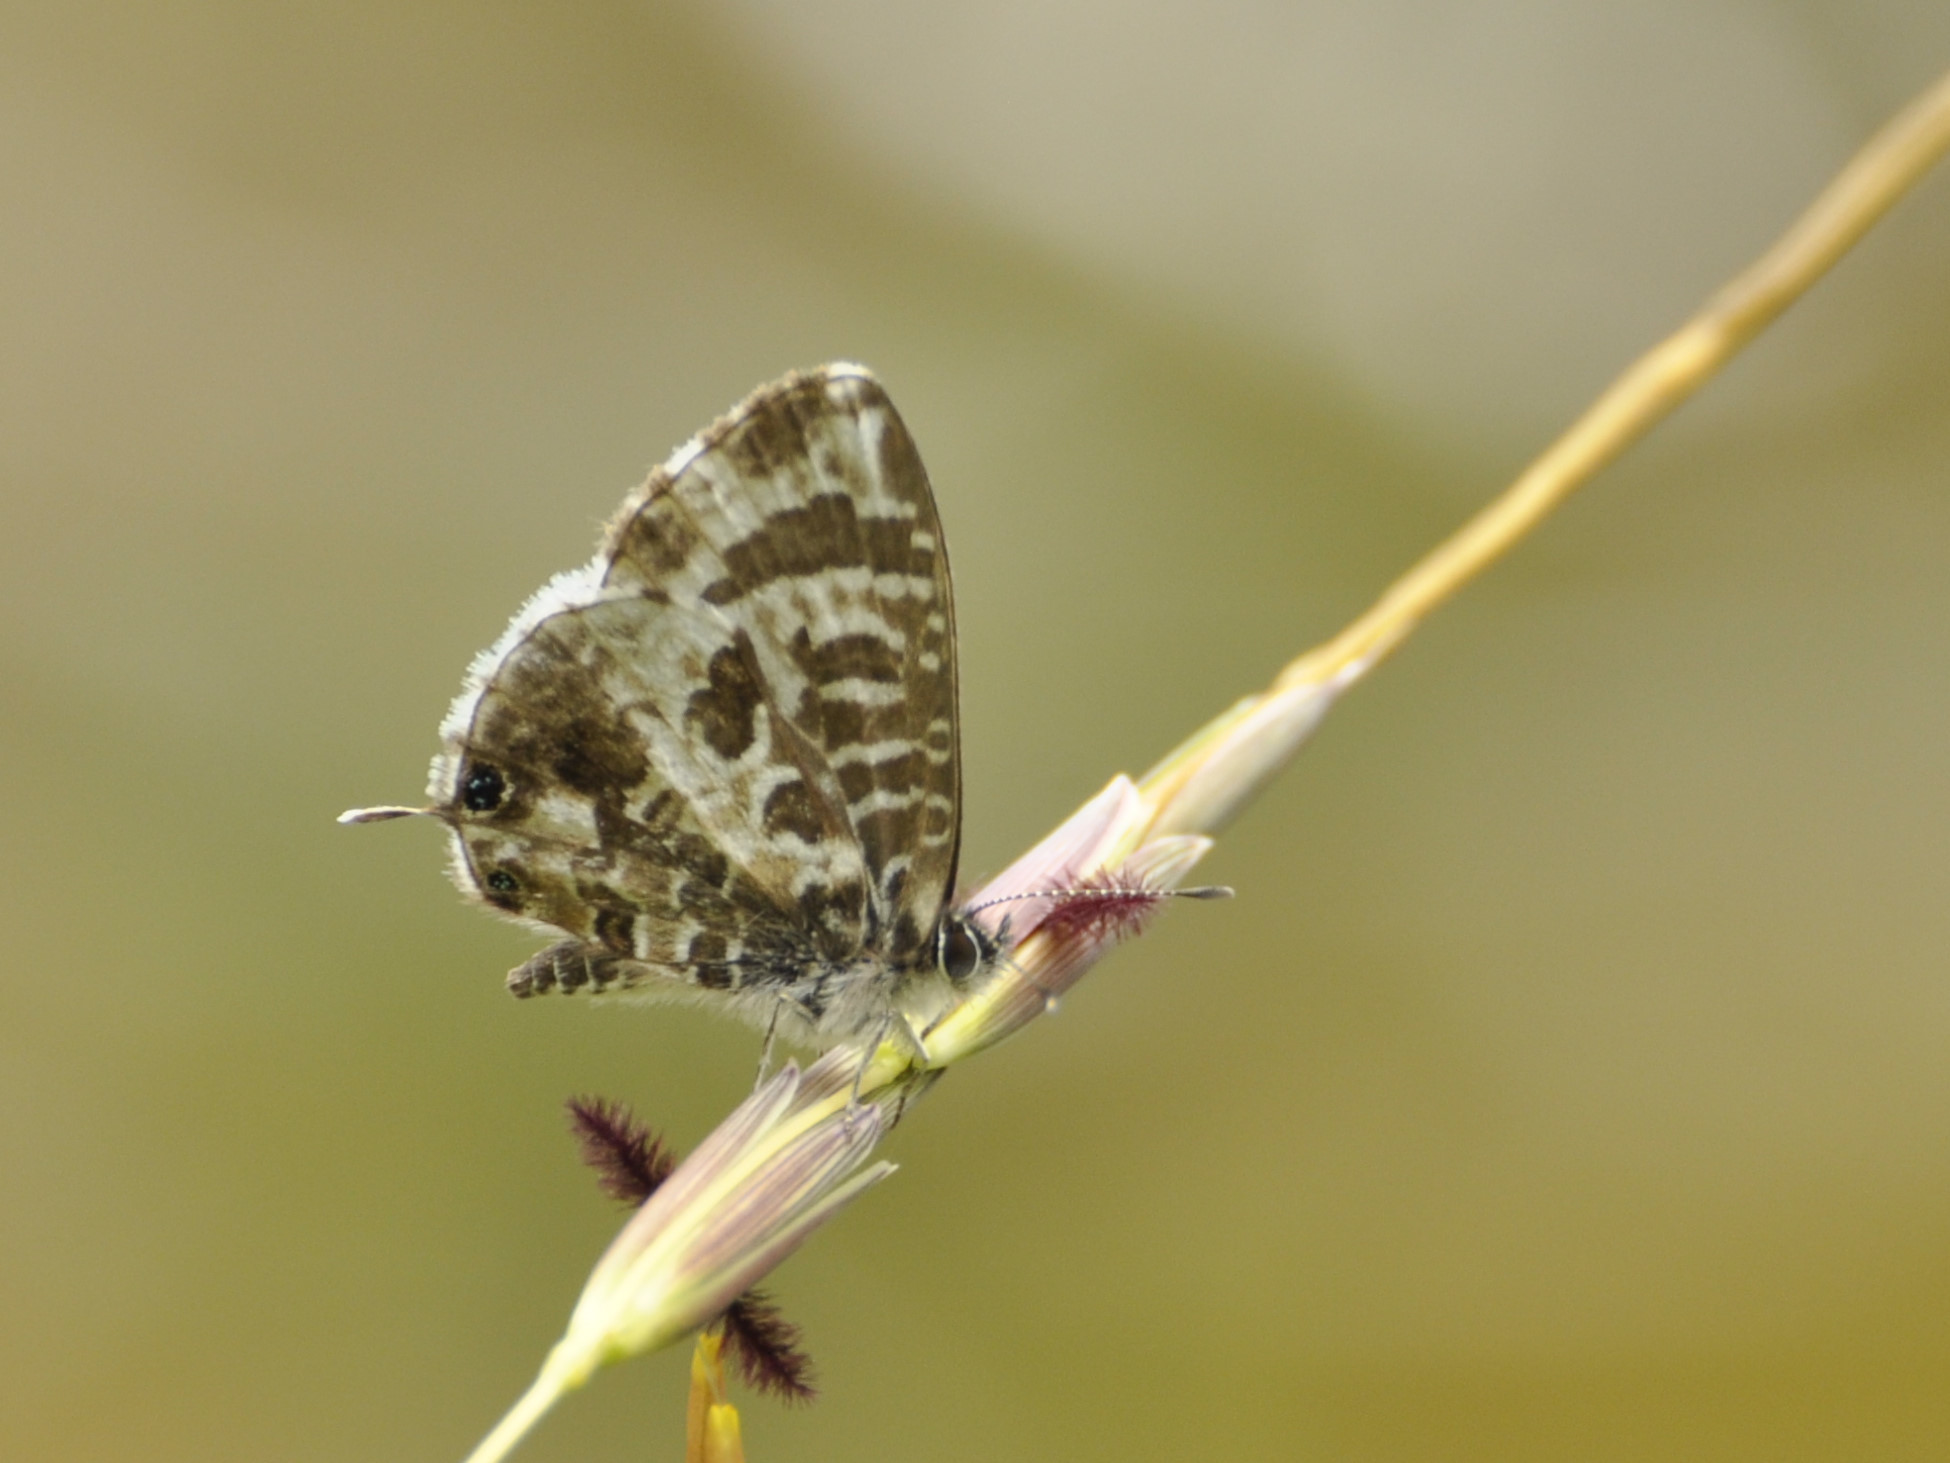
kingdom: Animalia
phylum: Arthropoda
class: Insecta
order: Lepidoptera
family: Lycaenidae
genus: Cacyreus
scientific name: Cacyreus lingeus
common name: Bush bronze
